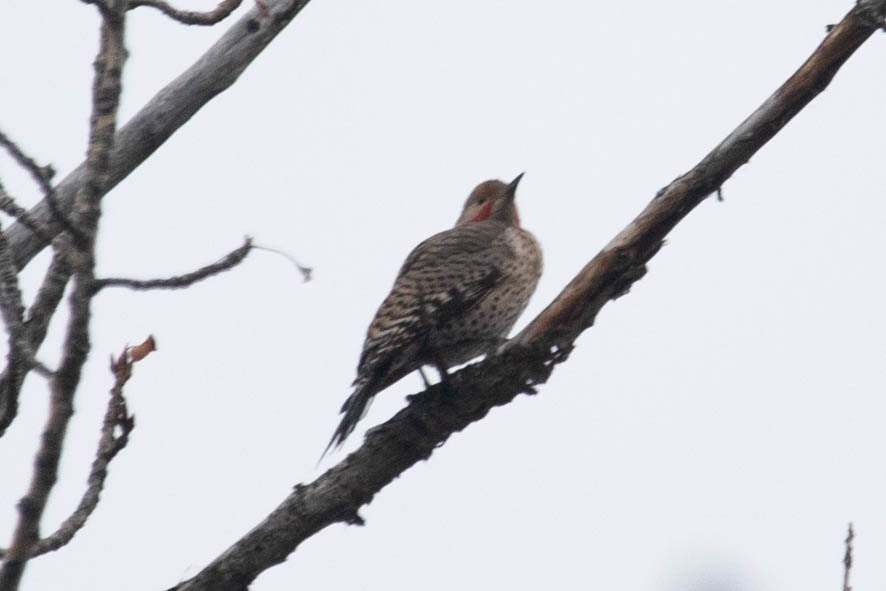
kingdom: Animalia
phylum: Chordata
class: Aves
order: Piciformes
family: Picidae
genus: Colaptes
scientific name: Colaptes auratus
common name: Northern flicker
